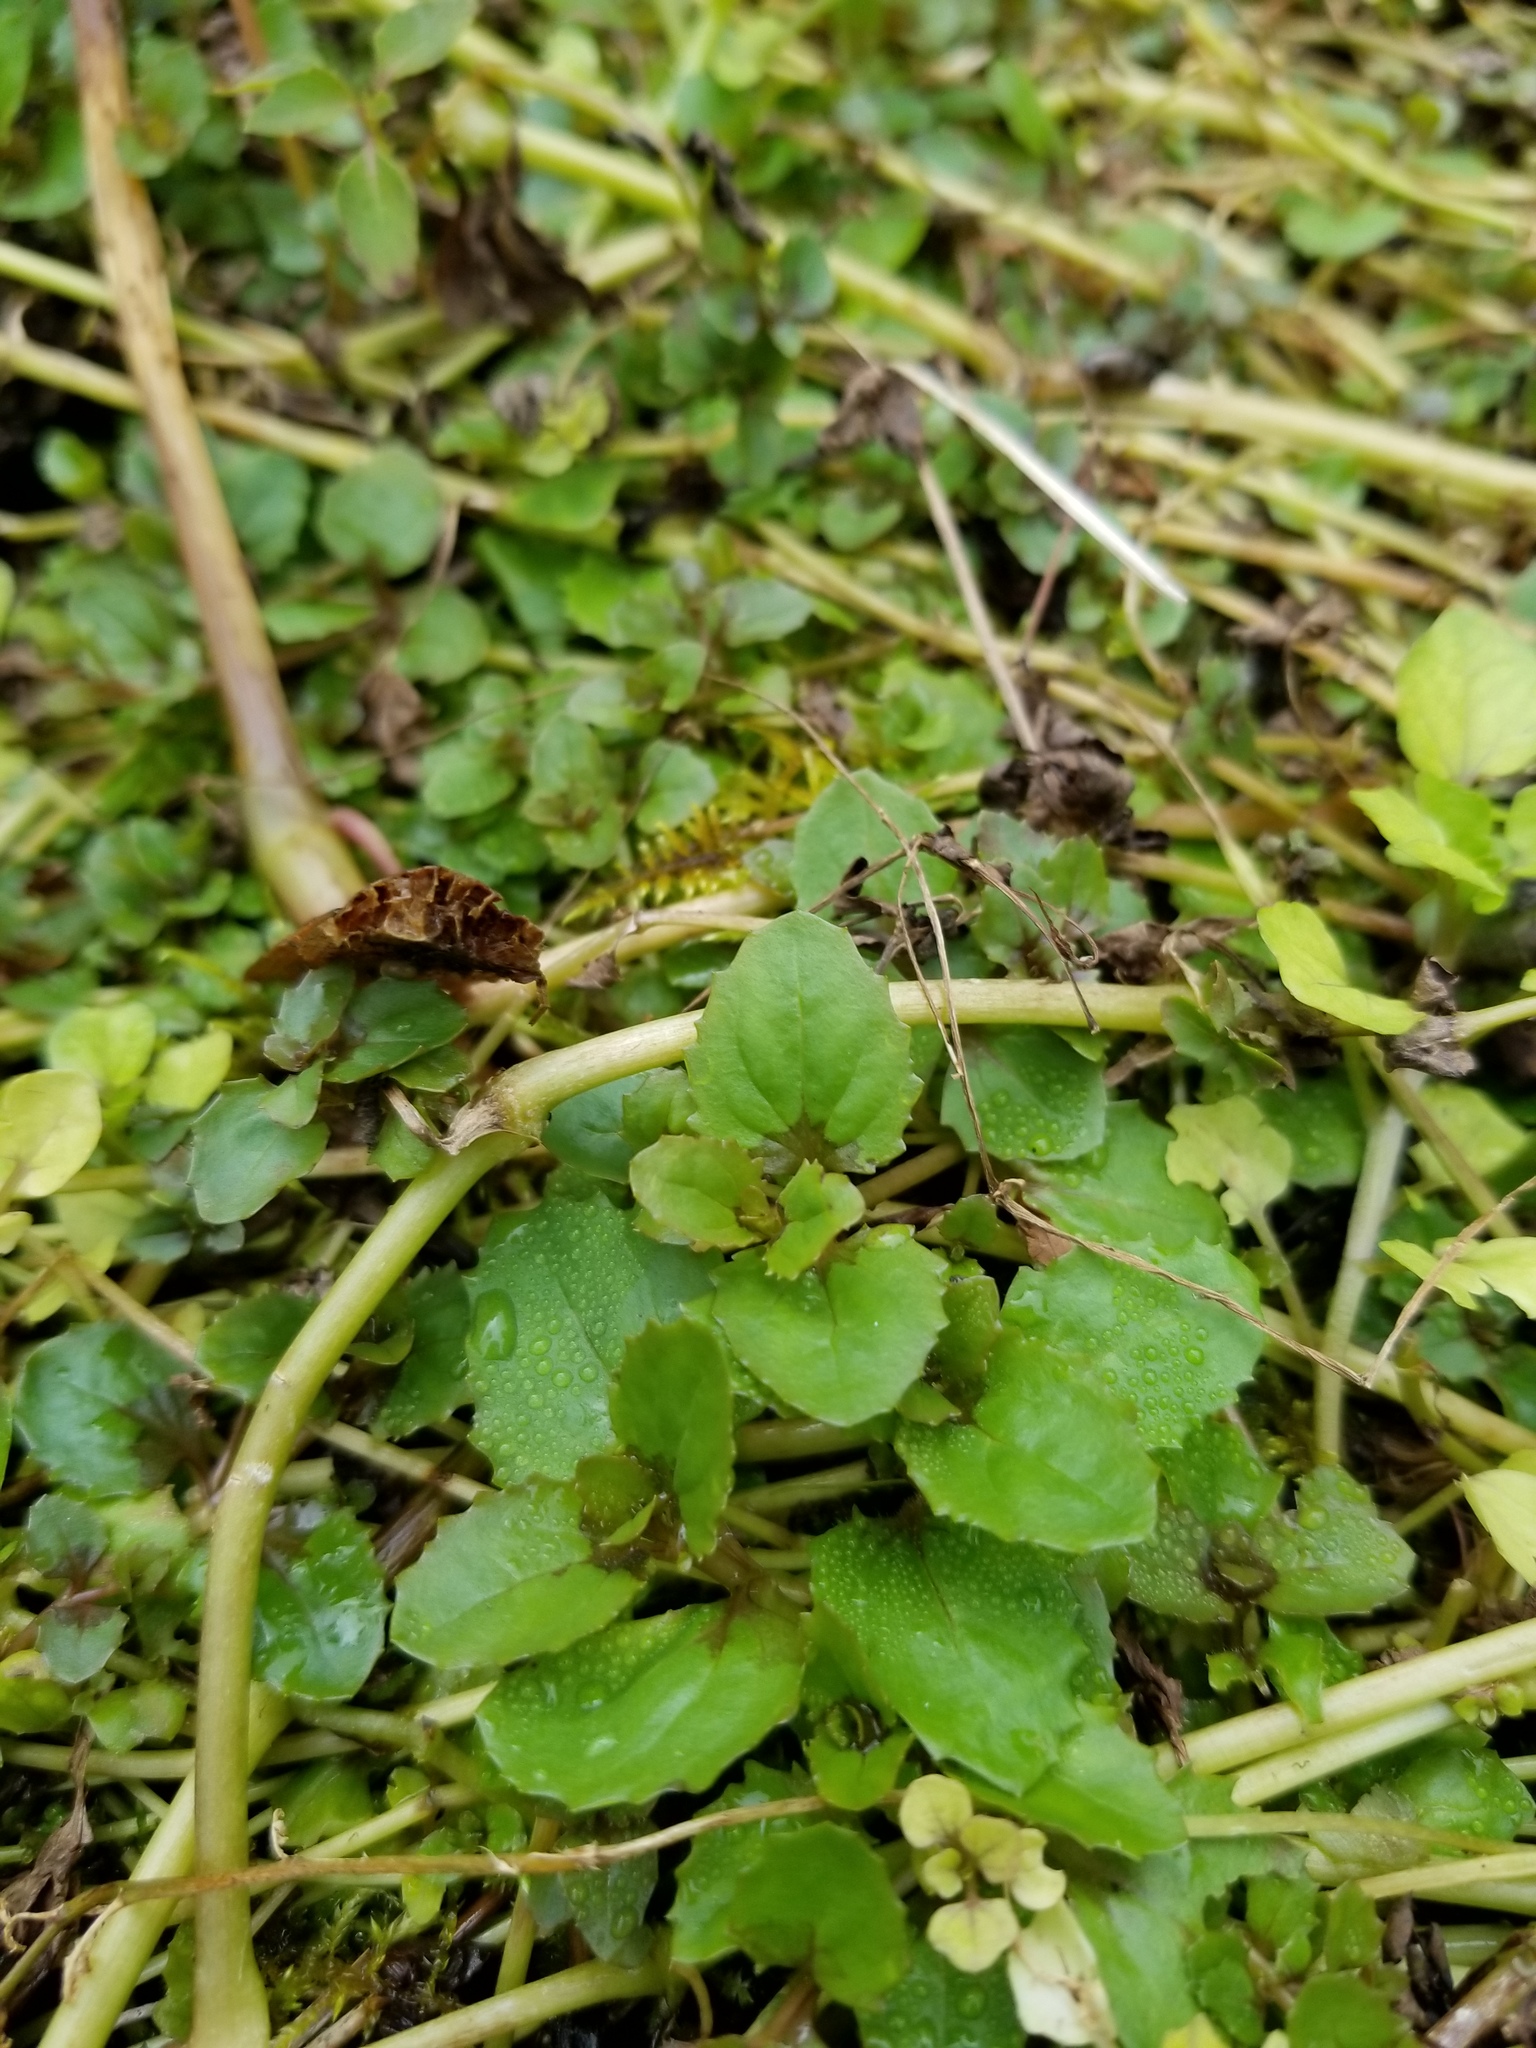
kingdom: Plantae
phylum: Tracheophyta
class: Magnoliopsida
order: Lamiales
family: Phrymaceae
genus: Erythranthe
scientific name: Erythranthe michiganensis
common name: Michigan monkey-flower
